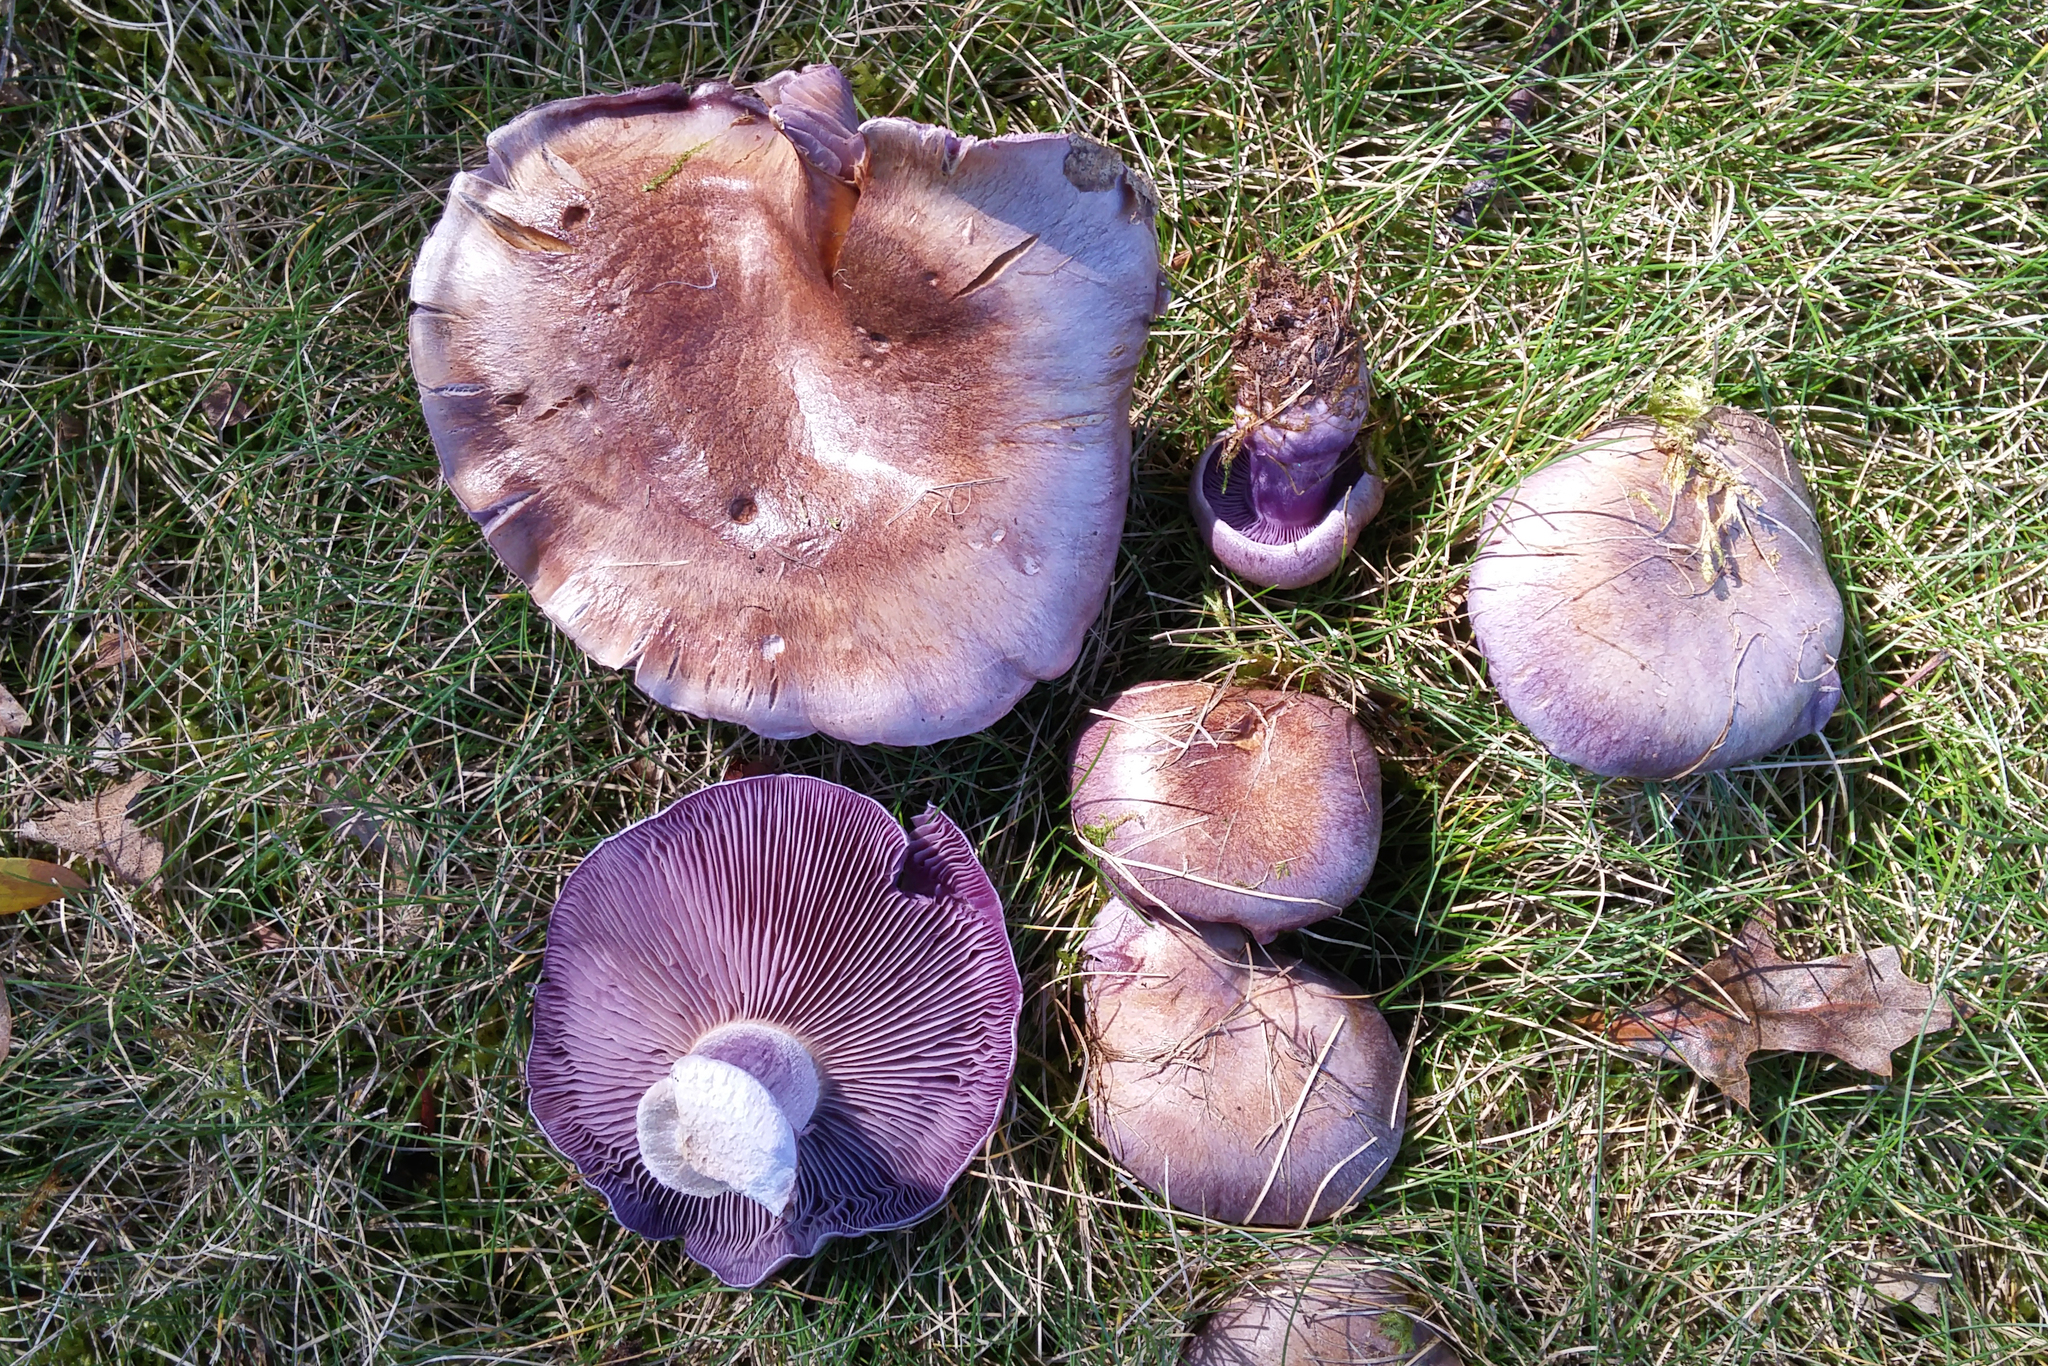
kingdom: Fungi
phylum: Basidiomycota
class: Agaricomycetes
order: Agaricales
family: Tricholomataceae
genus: Collybia
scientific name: Collybia
